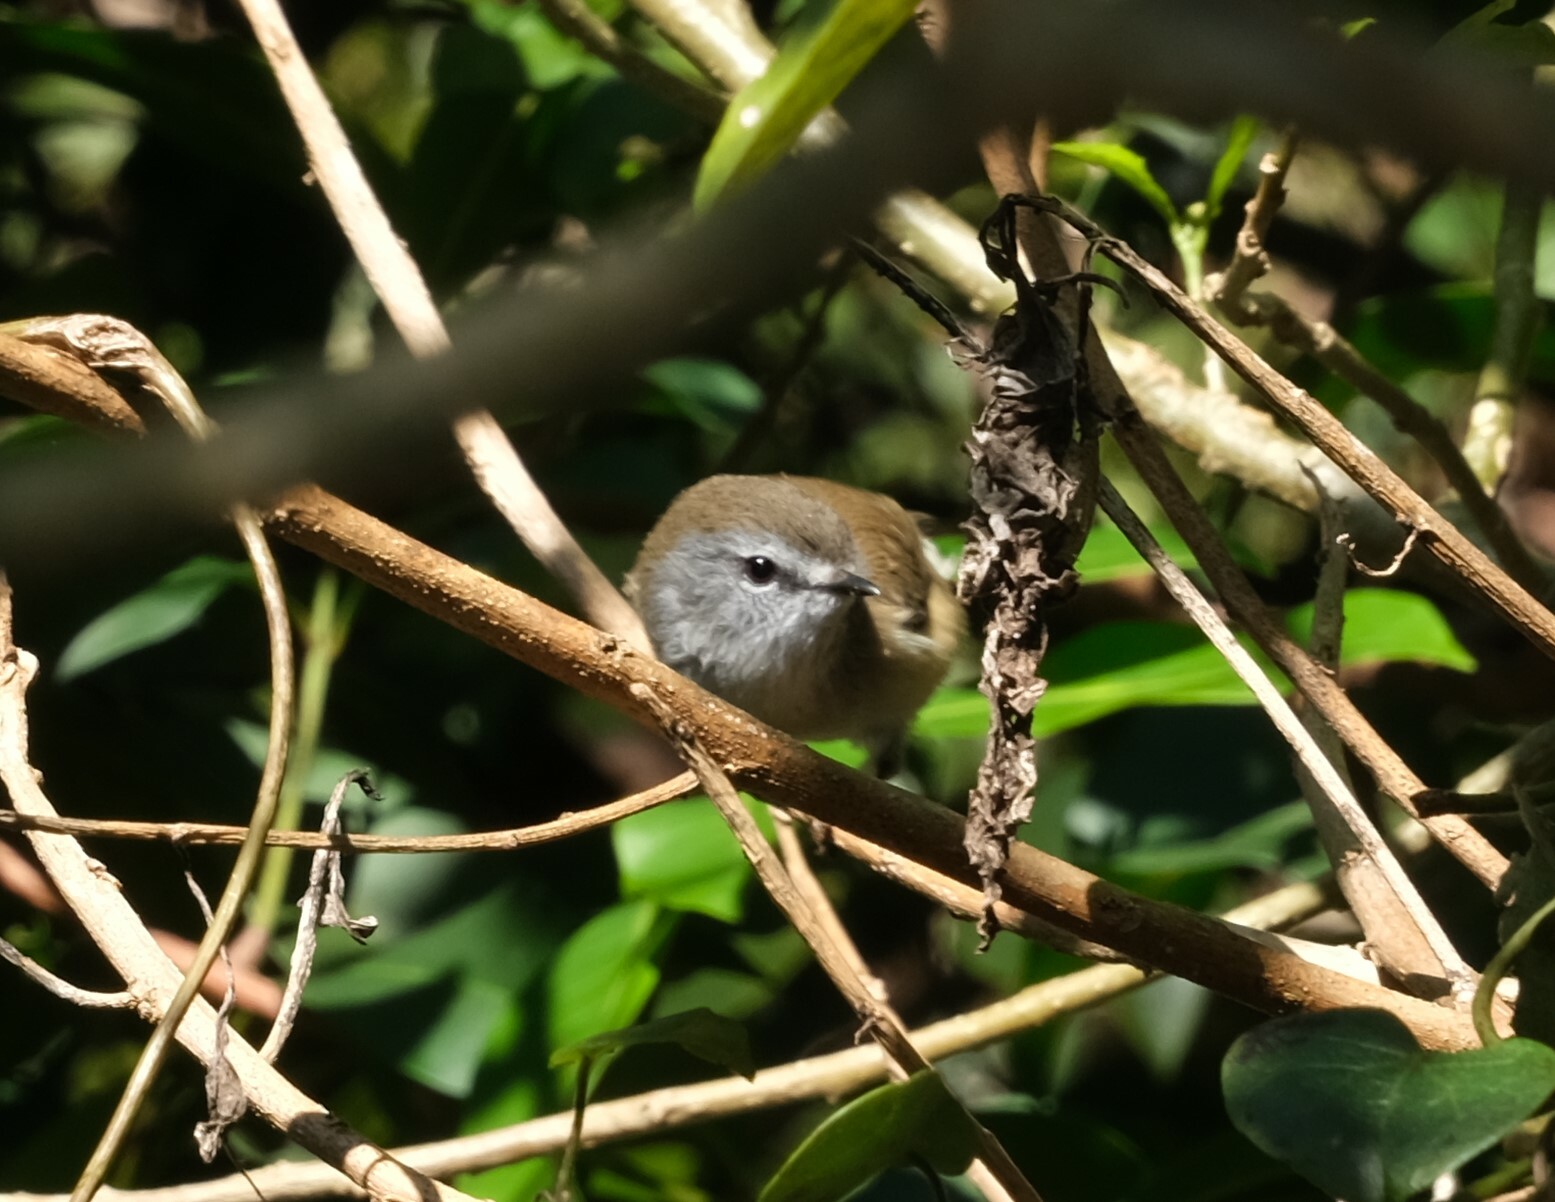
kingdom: Animalia
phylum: Chordata
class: Aves
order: Passeriformes
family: Acanthizidae
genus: Gerygone
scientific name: Gerygone mouki
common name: Brown gerygone
